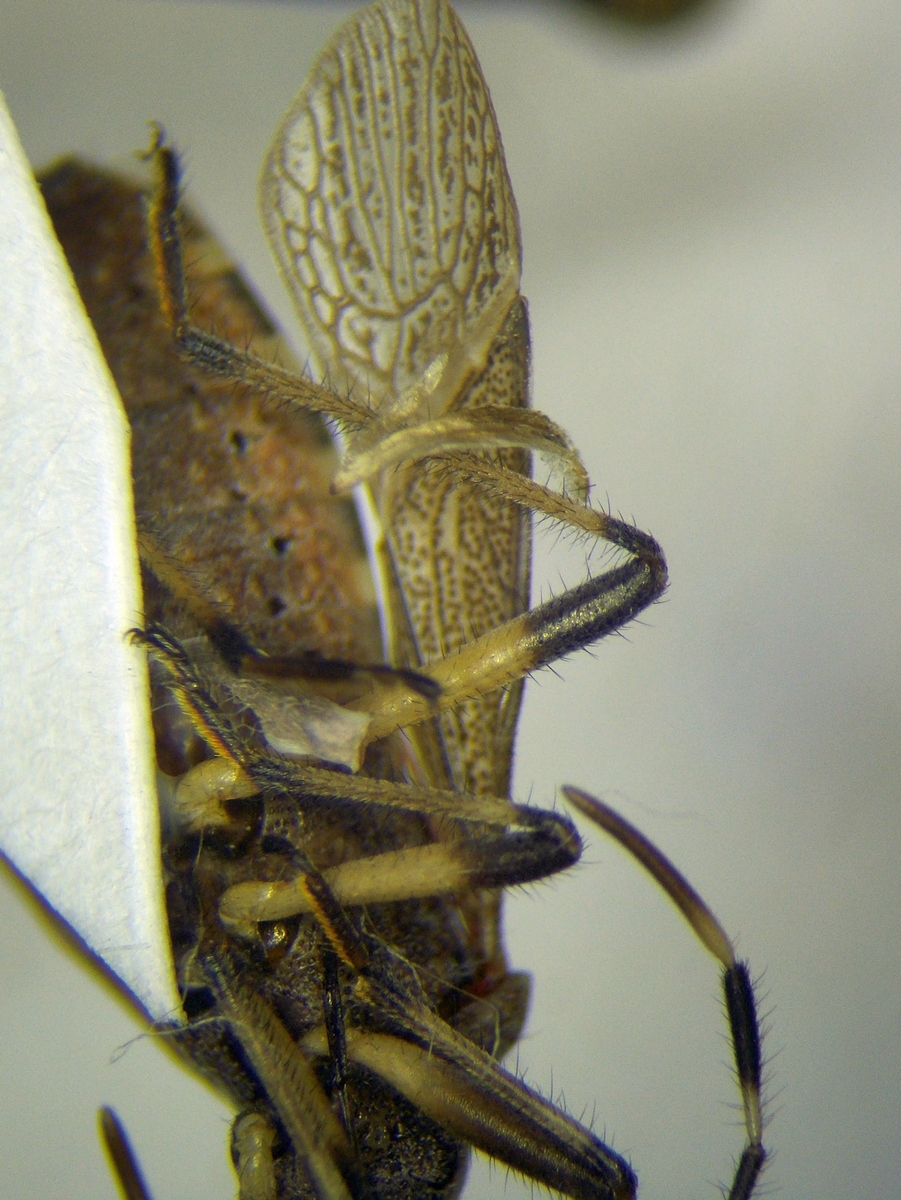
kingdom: Animalia
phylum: Arthropoda
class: Insecta
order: Hemiptera
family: Stenocephalidae
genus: Dicranocephalus
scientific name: Dicranocephalus setulosus
